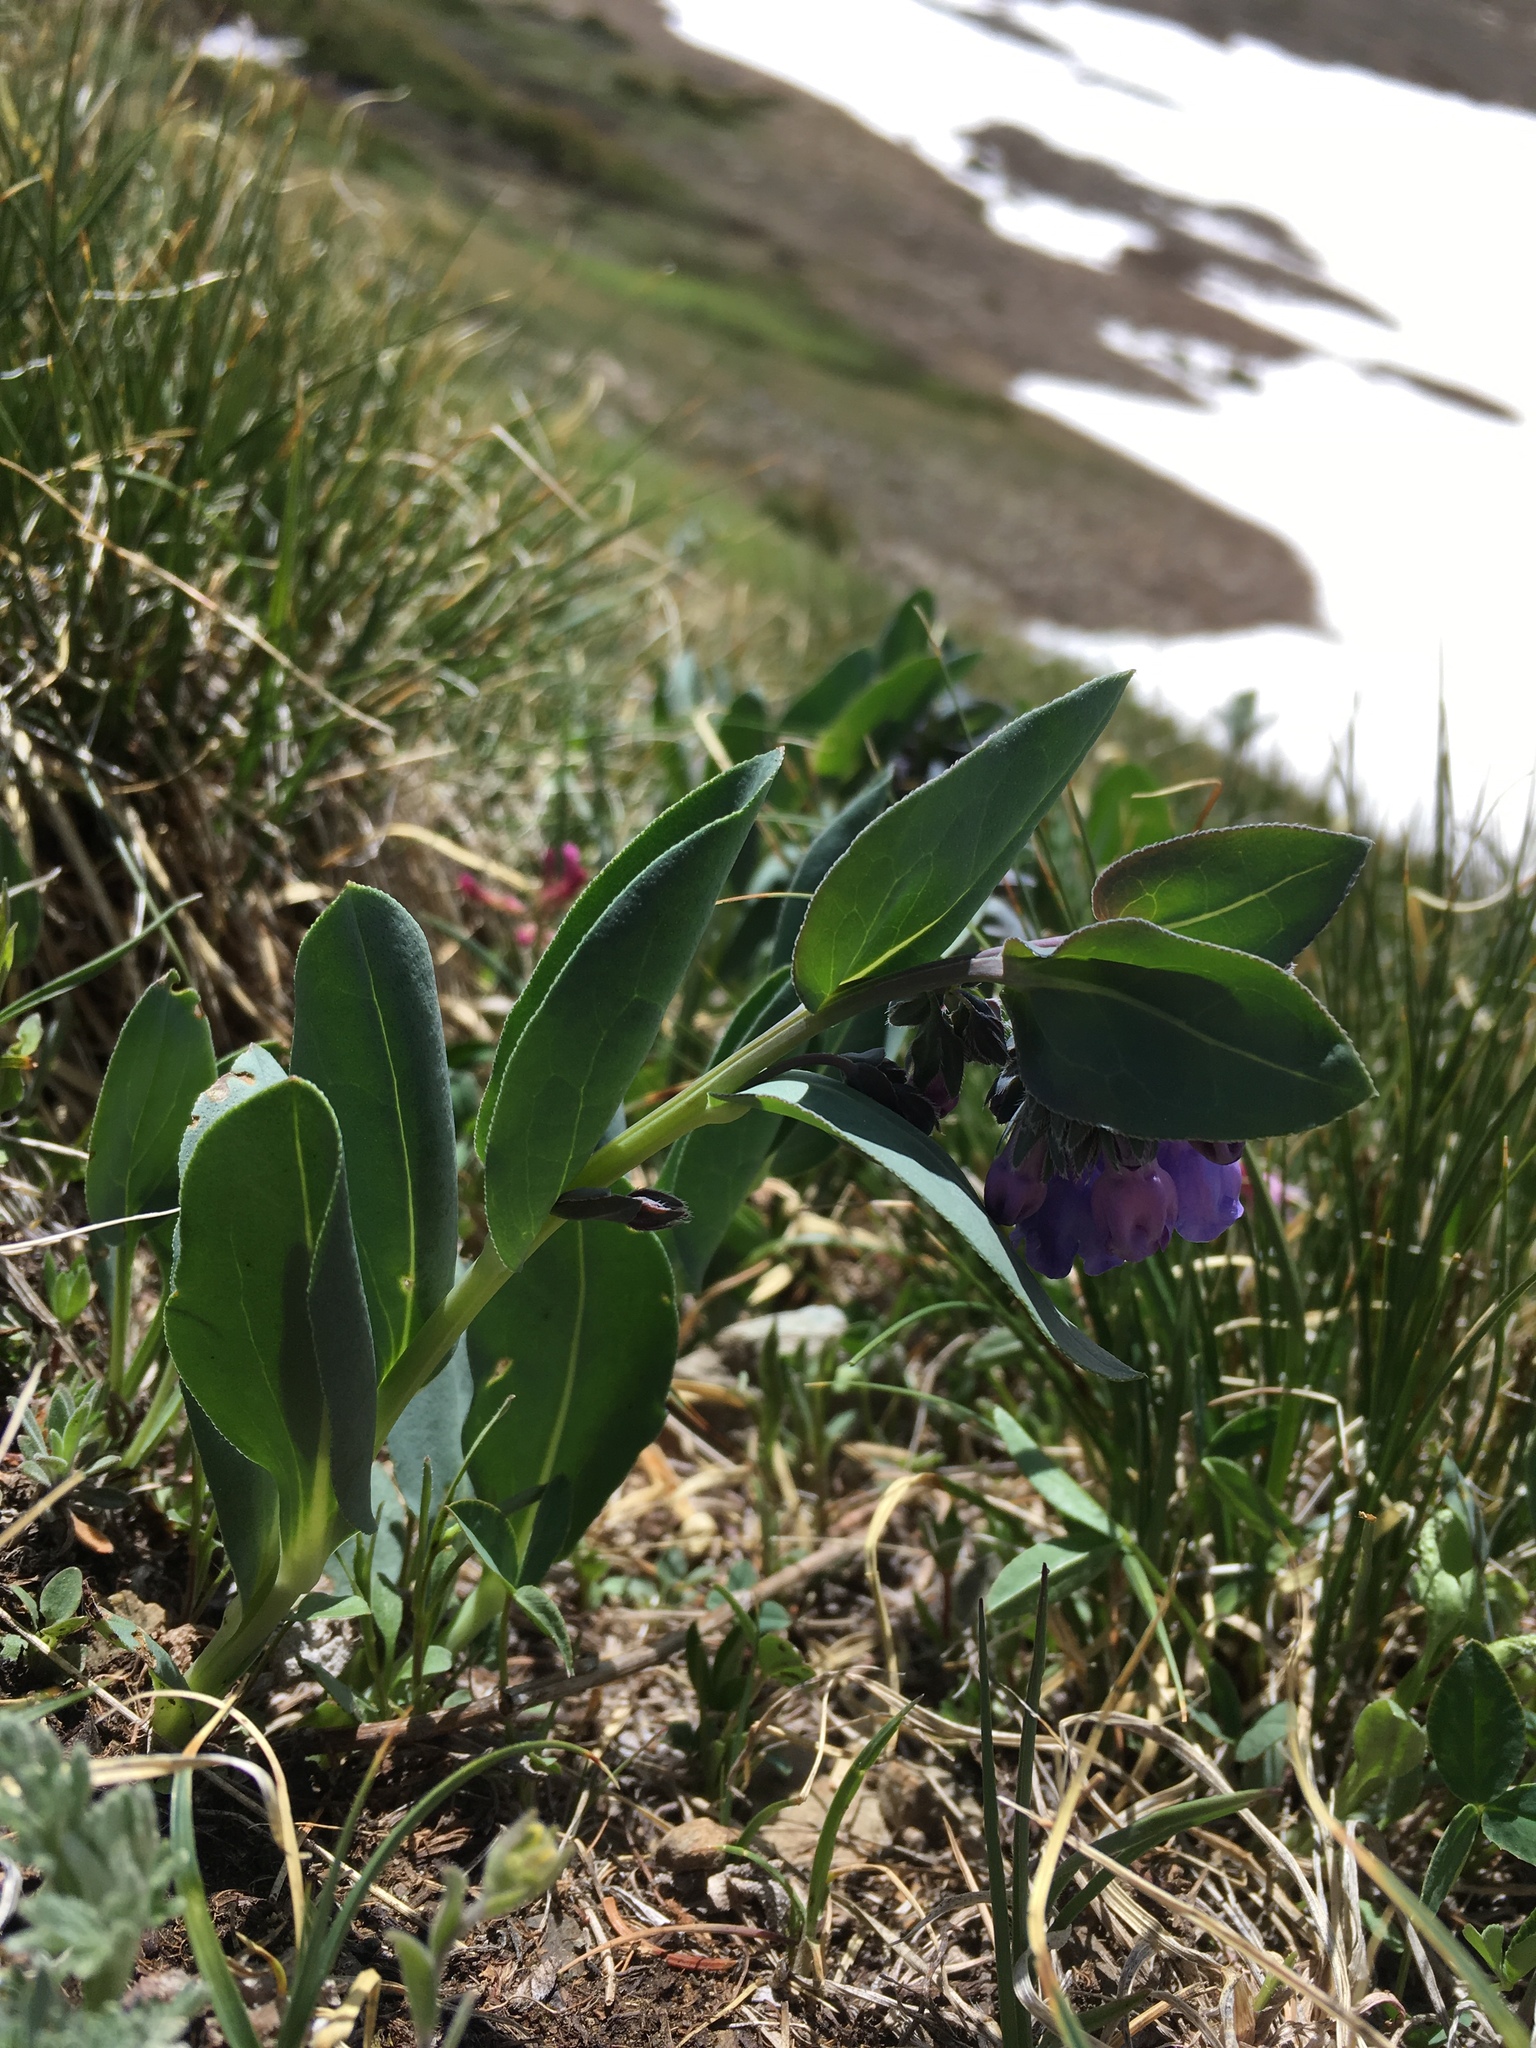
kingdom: Plantae
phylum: Tracheophyta
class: Magnoliopsida
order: Boraginales
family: Boraginaceae
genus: Mertensia
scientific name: Mertensia ovata
